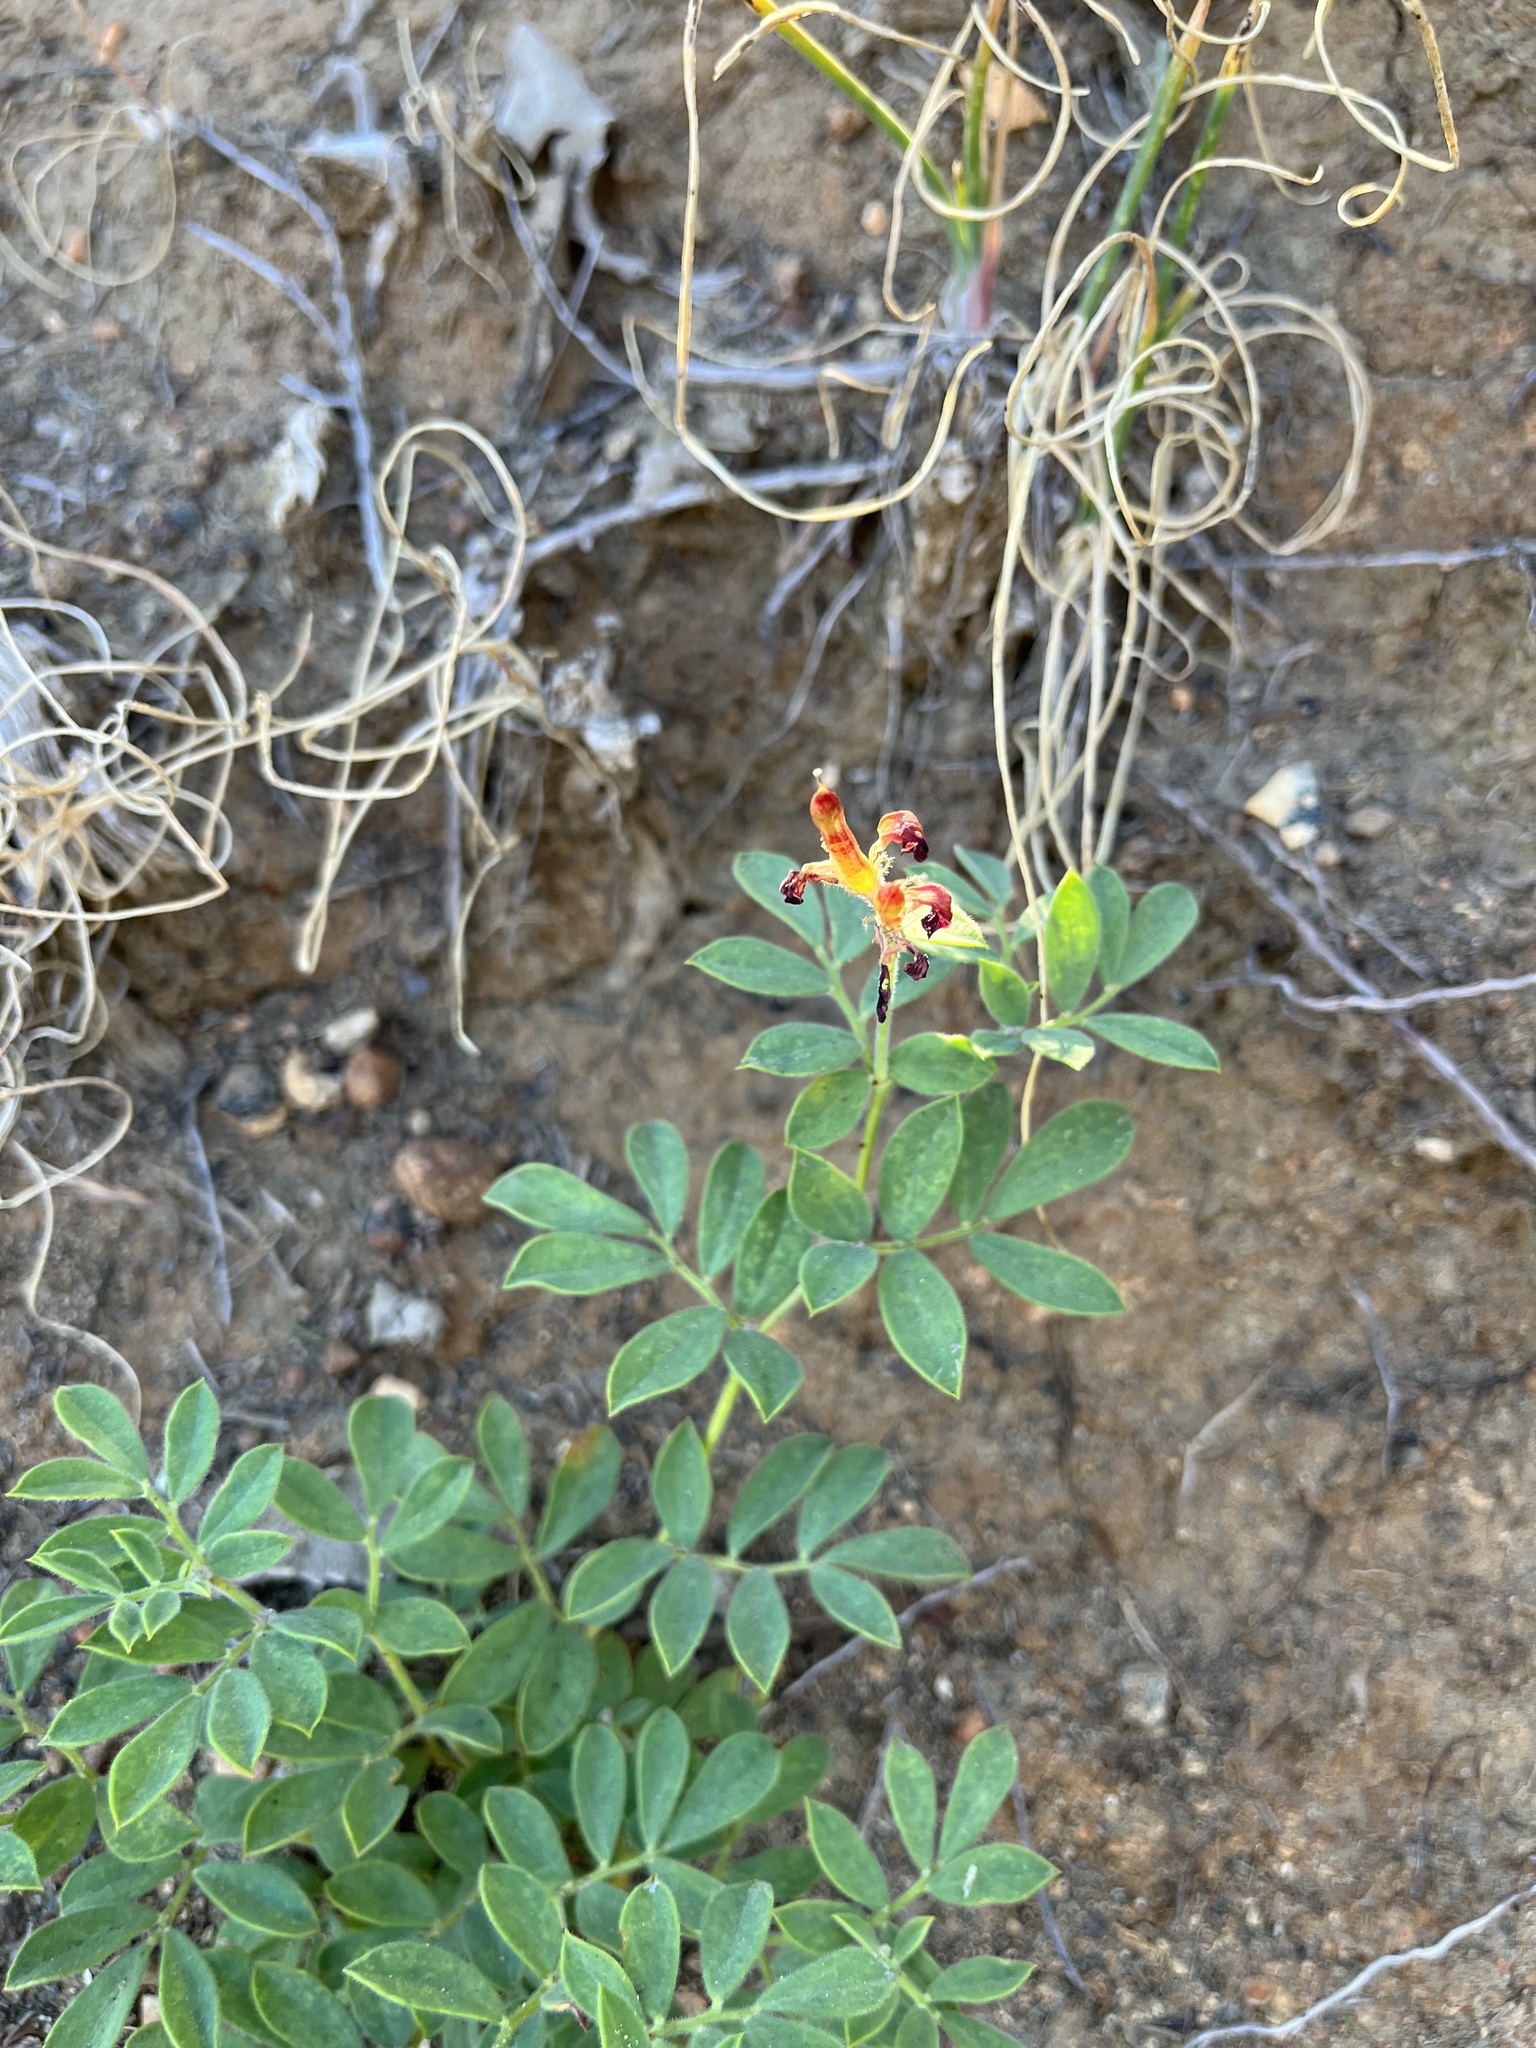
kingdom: Plantae
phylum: Tracheophyta
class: Magnoliopsida
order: Fabales
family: Fabaceae
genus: Acmispon
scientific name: Acmispon grandiflorus
